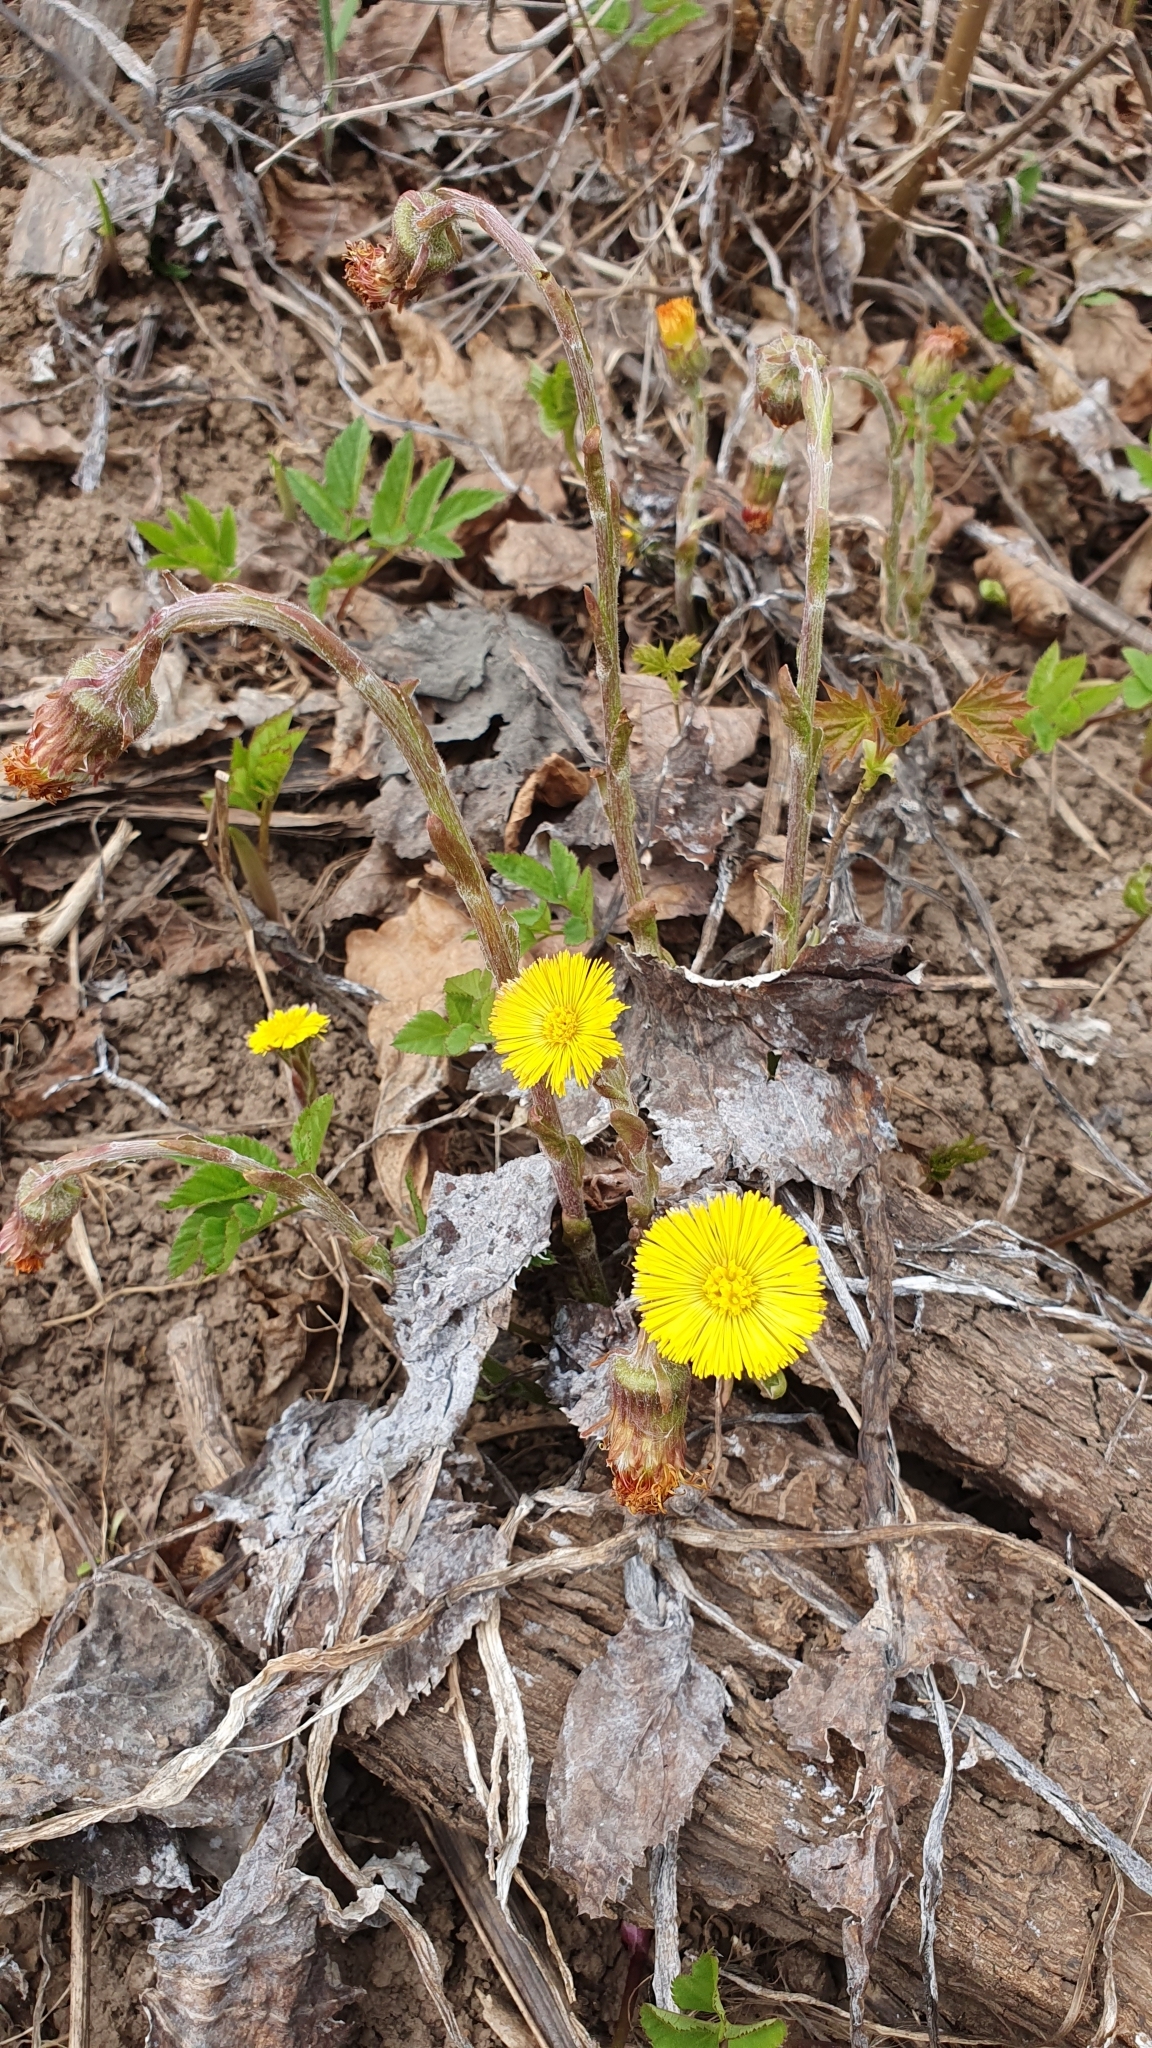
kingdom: Plantae
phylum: Tracheophyta
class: Magnoliopsida
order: Asterales
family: Asteraceae
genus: Tussilago
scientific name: Tussilago farfara
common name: Coltsfoot
